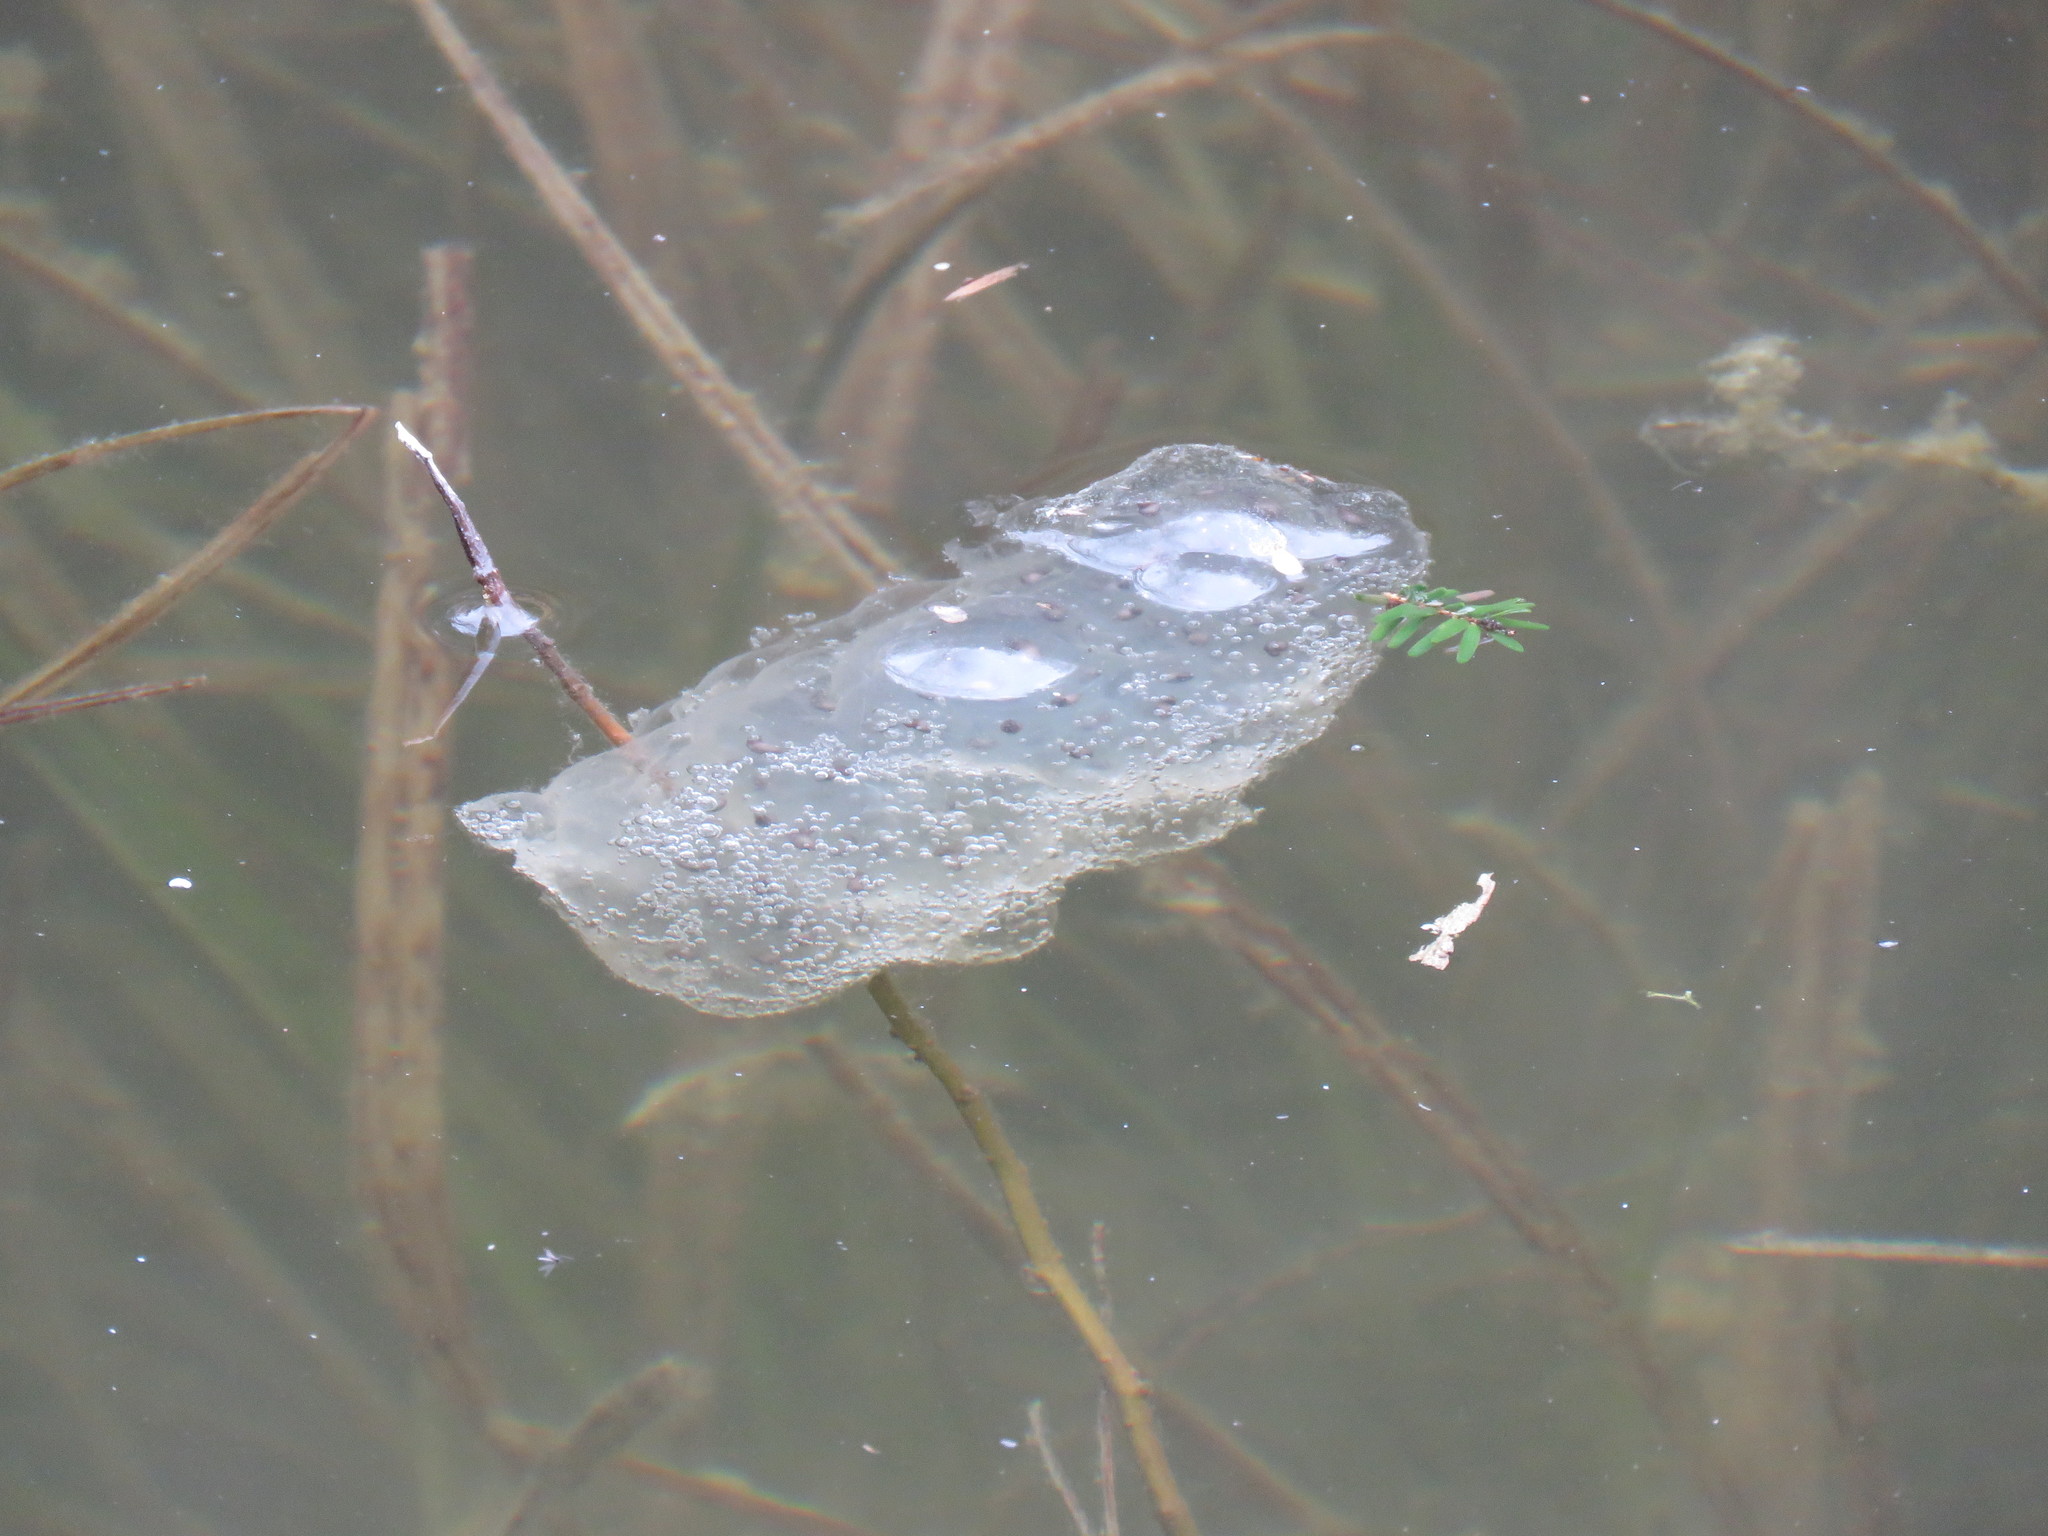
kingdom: Animalia
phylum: Chordata
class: Amphibia
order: Caudata
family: Ambystomatidae
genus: Ambystoma
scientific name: Ambystoma maculatum
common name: Spotted salamander
